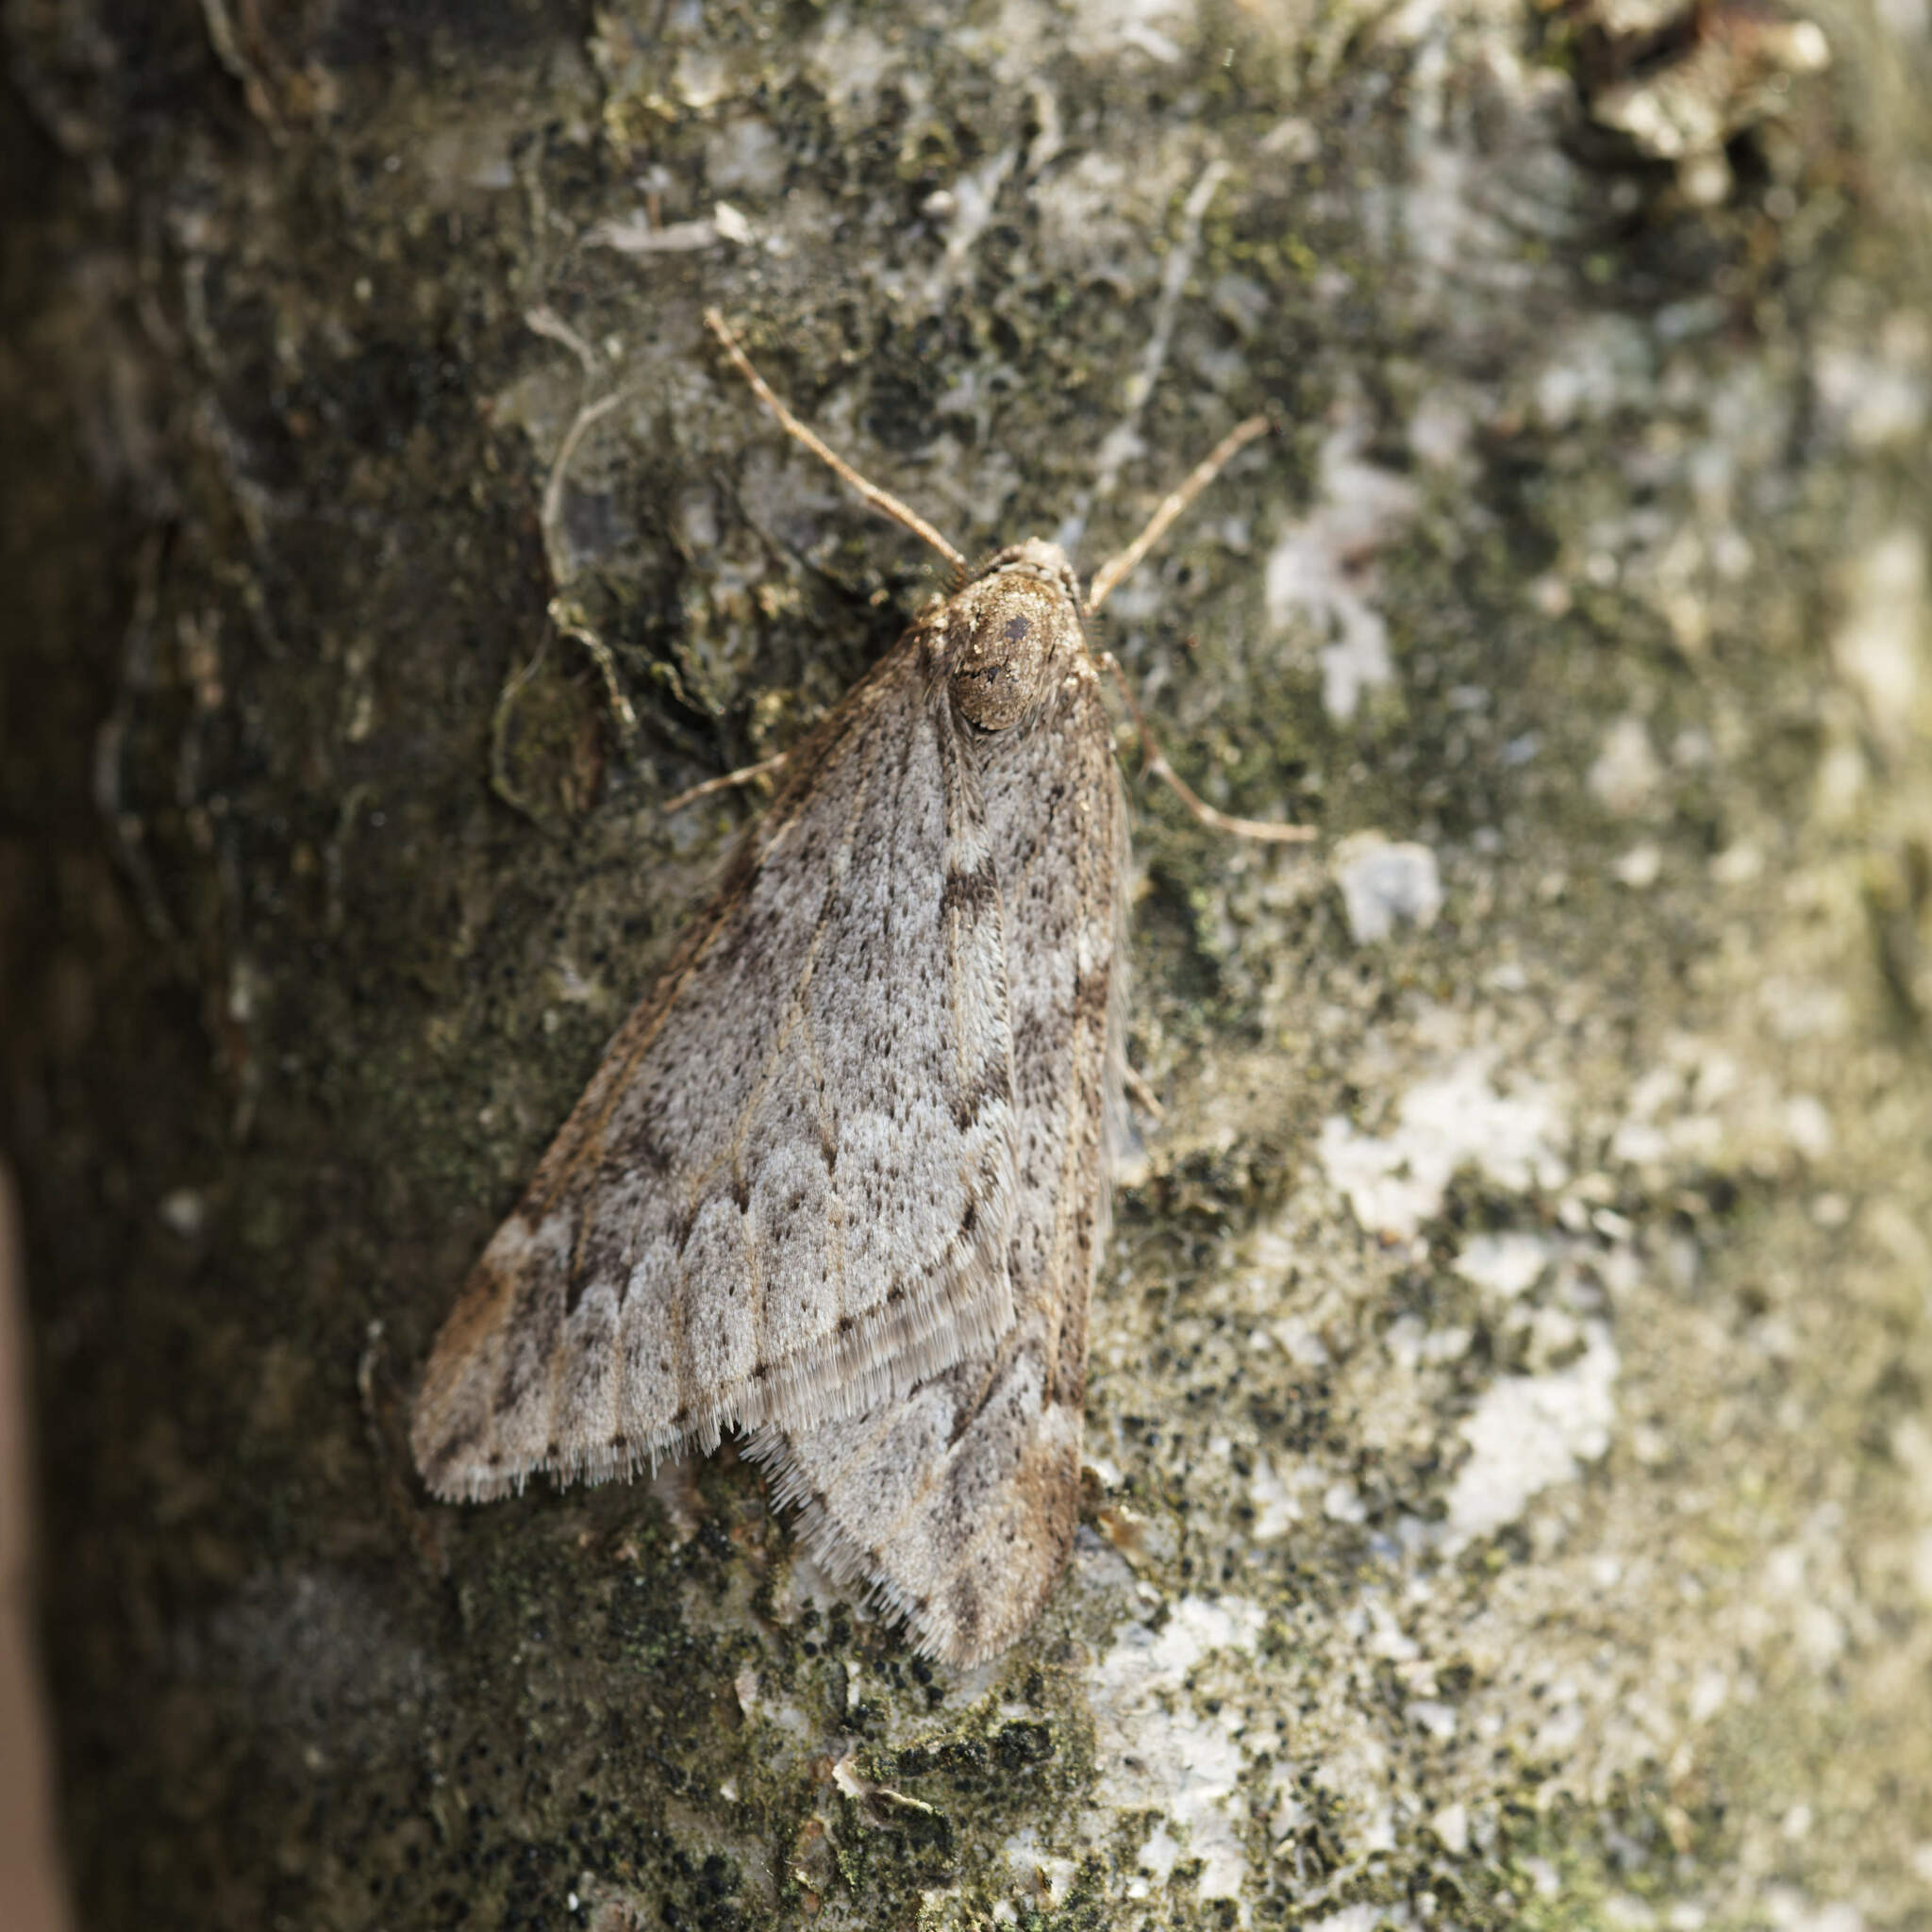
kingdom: Animalia
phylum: Arthropoda
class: Insecta
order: Lepidoptera
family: Geometridae
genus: Alsophila
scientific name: Alsophila aescularia
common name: March moth
